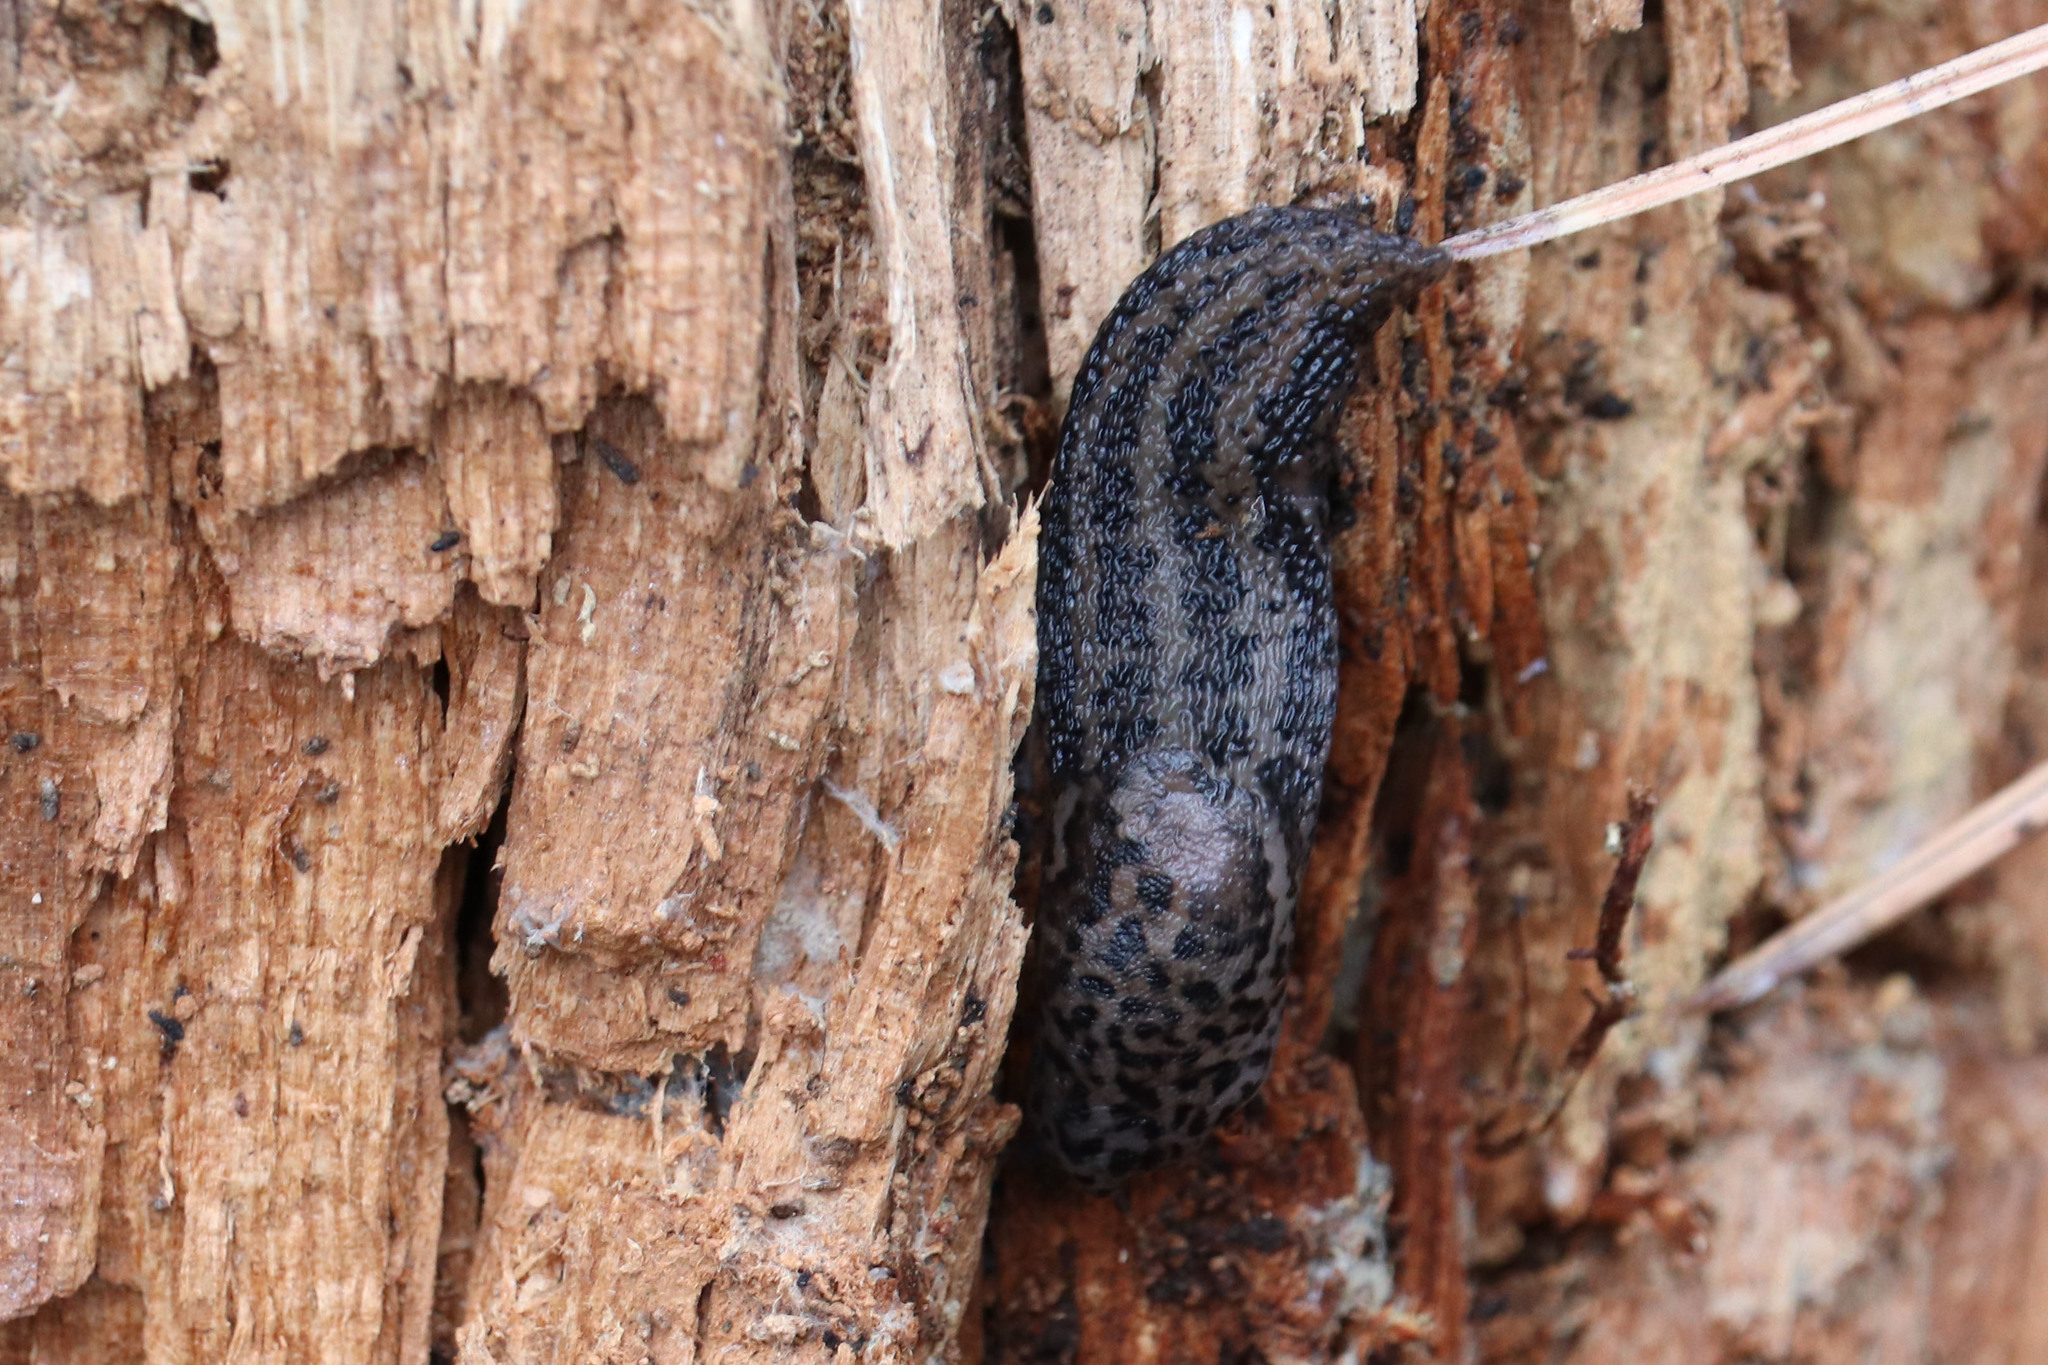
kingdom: Animalia
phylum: Mollusca
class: Gastropoda
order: Stylommatophora
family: Limacidae
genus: Limax
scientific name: Limax maximus
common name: Great grey slug
